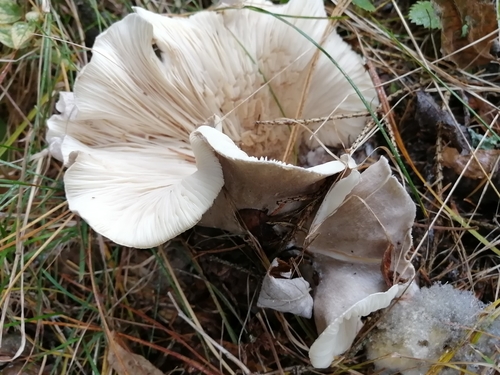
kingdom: Fungi
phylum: Basidiomycota
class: Agaricomycetes
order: Agaricales
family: Tricholomataceae
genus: Clitocybe
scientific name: Clitocybe nebularis
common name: Clouded agaric
